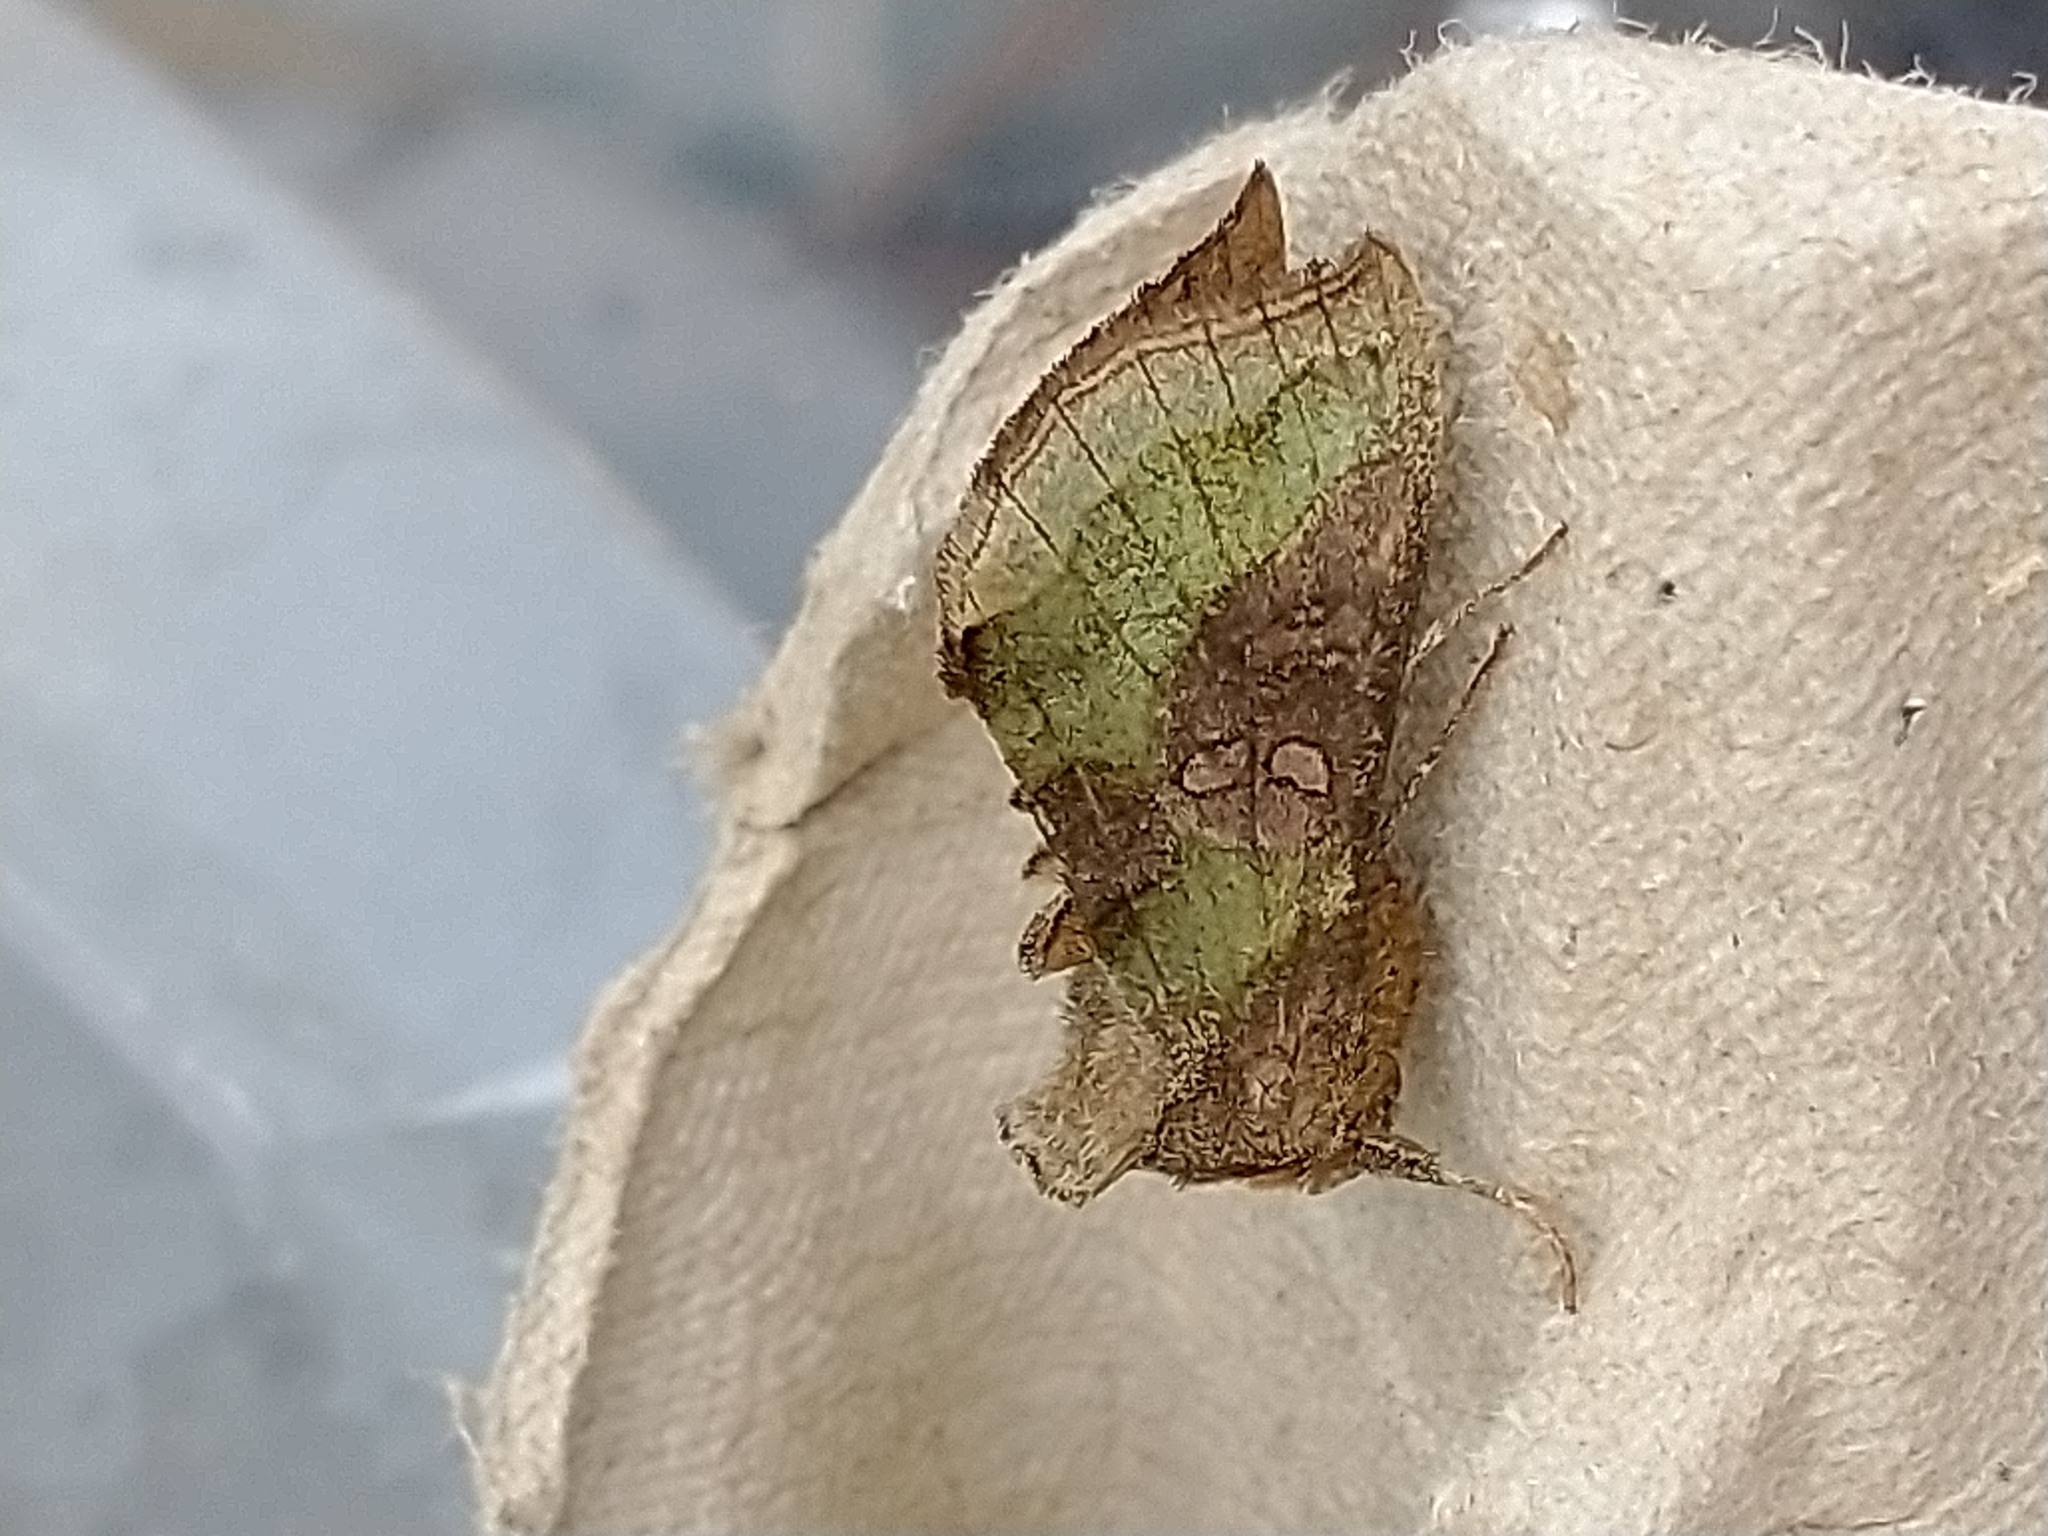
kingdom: Animalia
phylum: Arthropoda
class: Insecta
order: Lepidoptera
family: Noctuidae
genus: Diachrysia
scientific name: Diachrysia chrysitis
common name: Burnished brass
